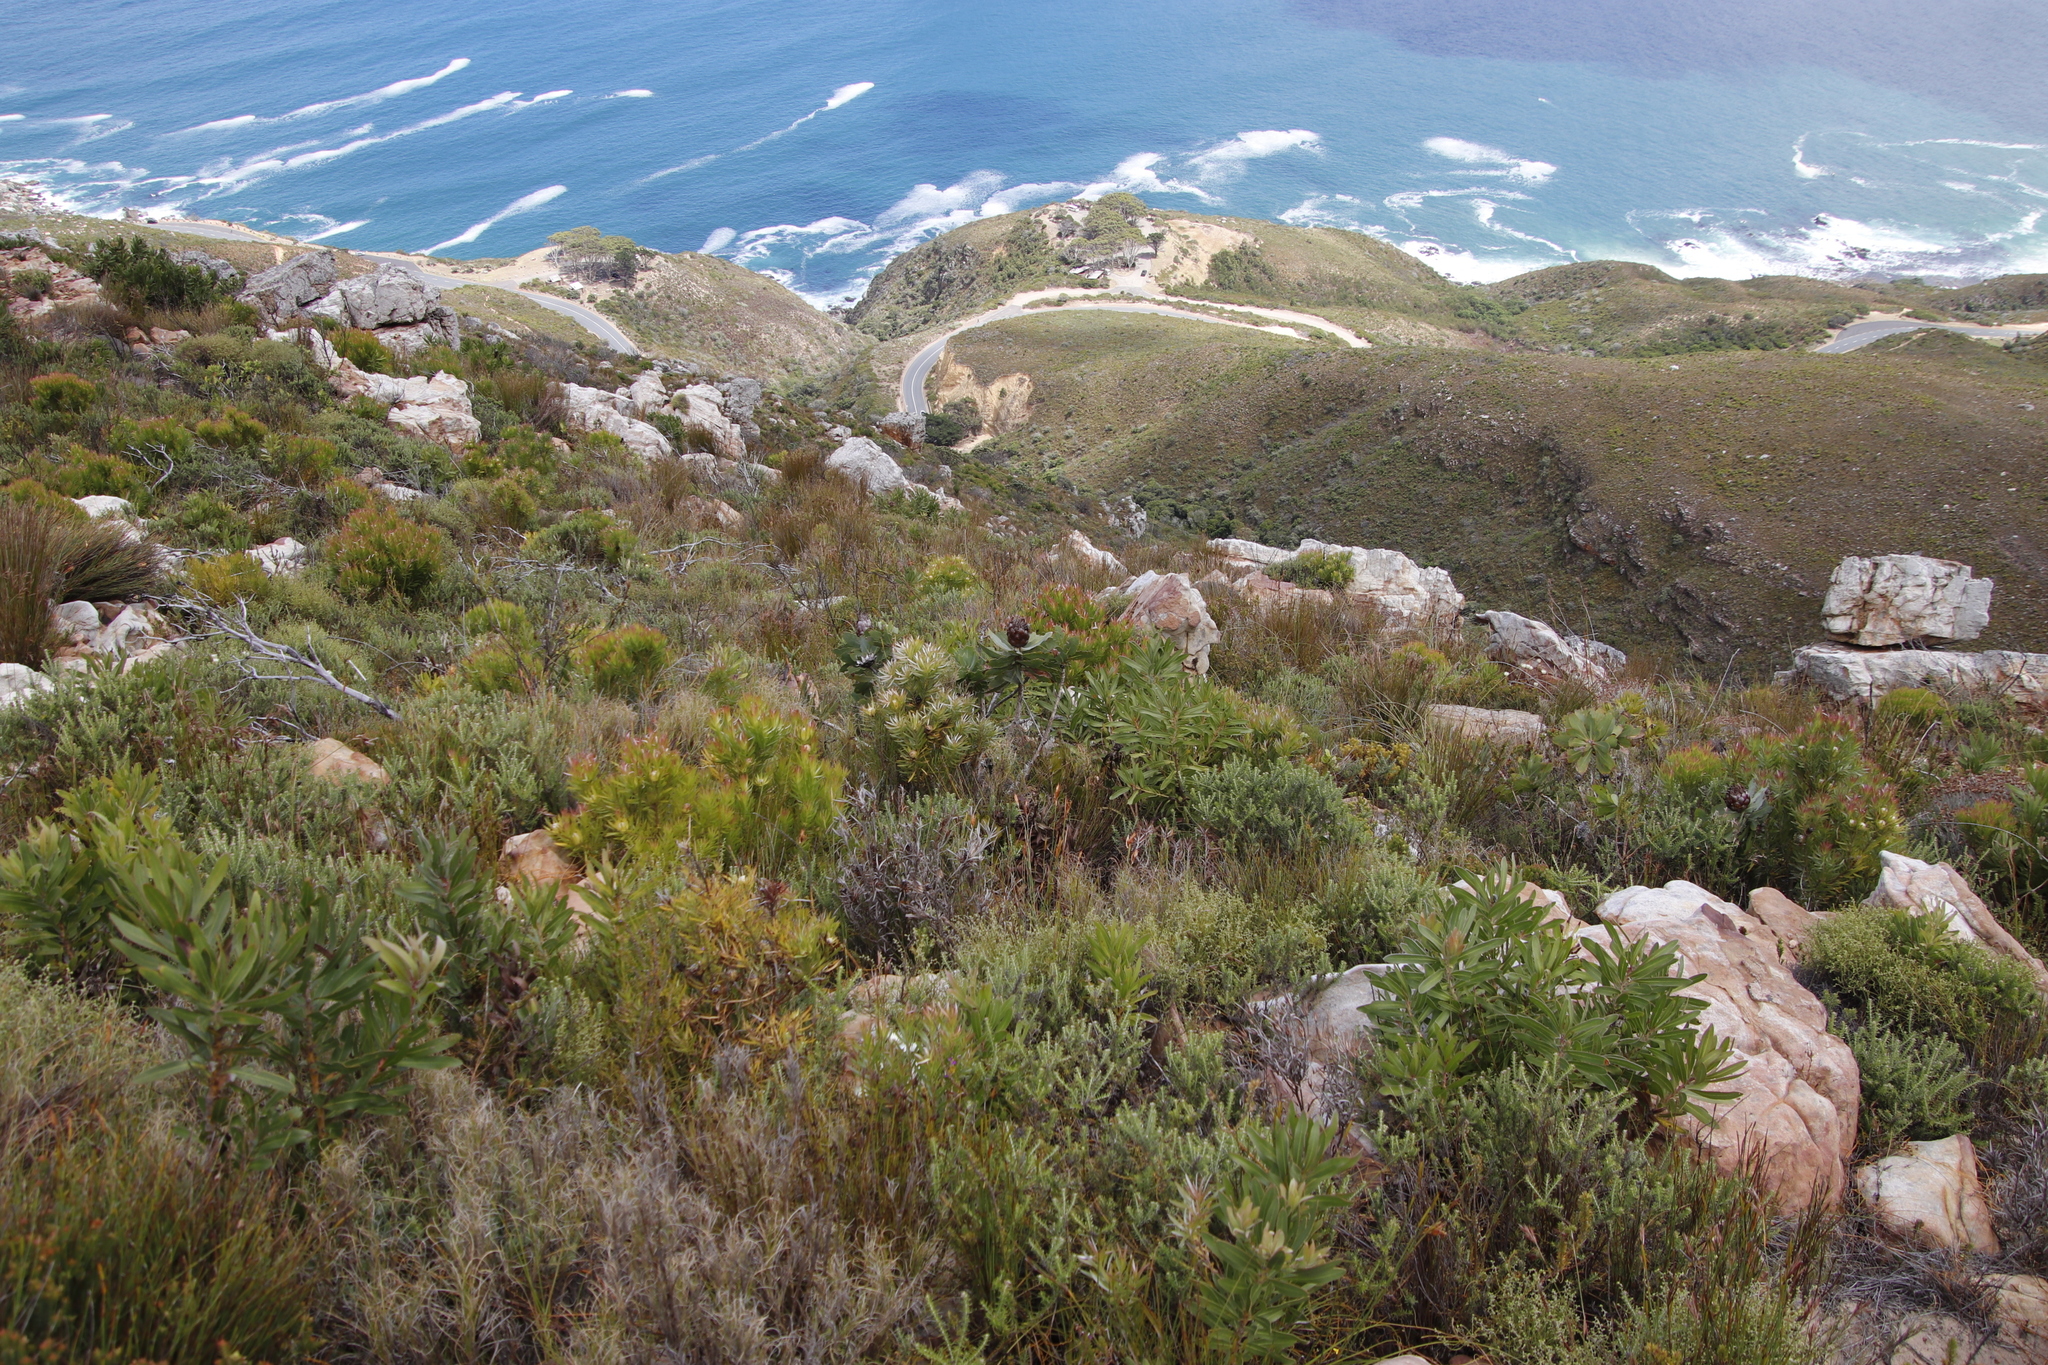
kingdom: Plantae
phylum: Tracheophyta
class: Magnoliopsida
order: Proteales
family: Proteaceae
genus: Protea
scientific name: Protea nitida
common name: Tree protea
